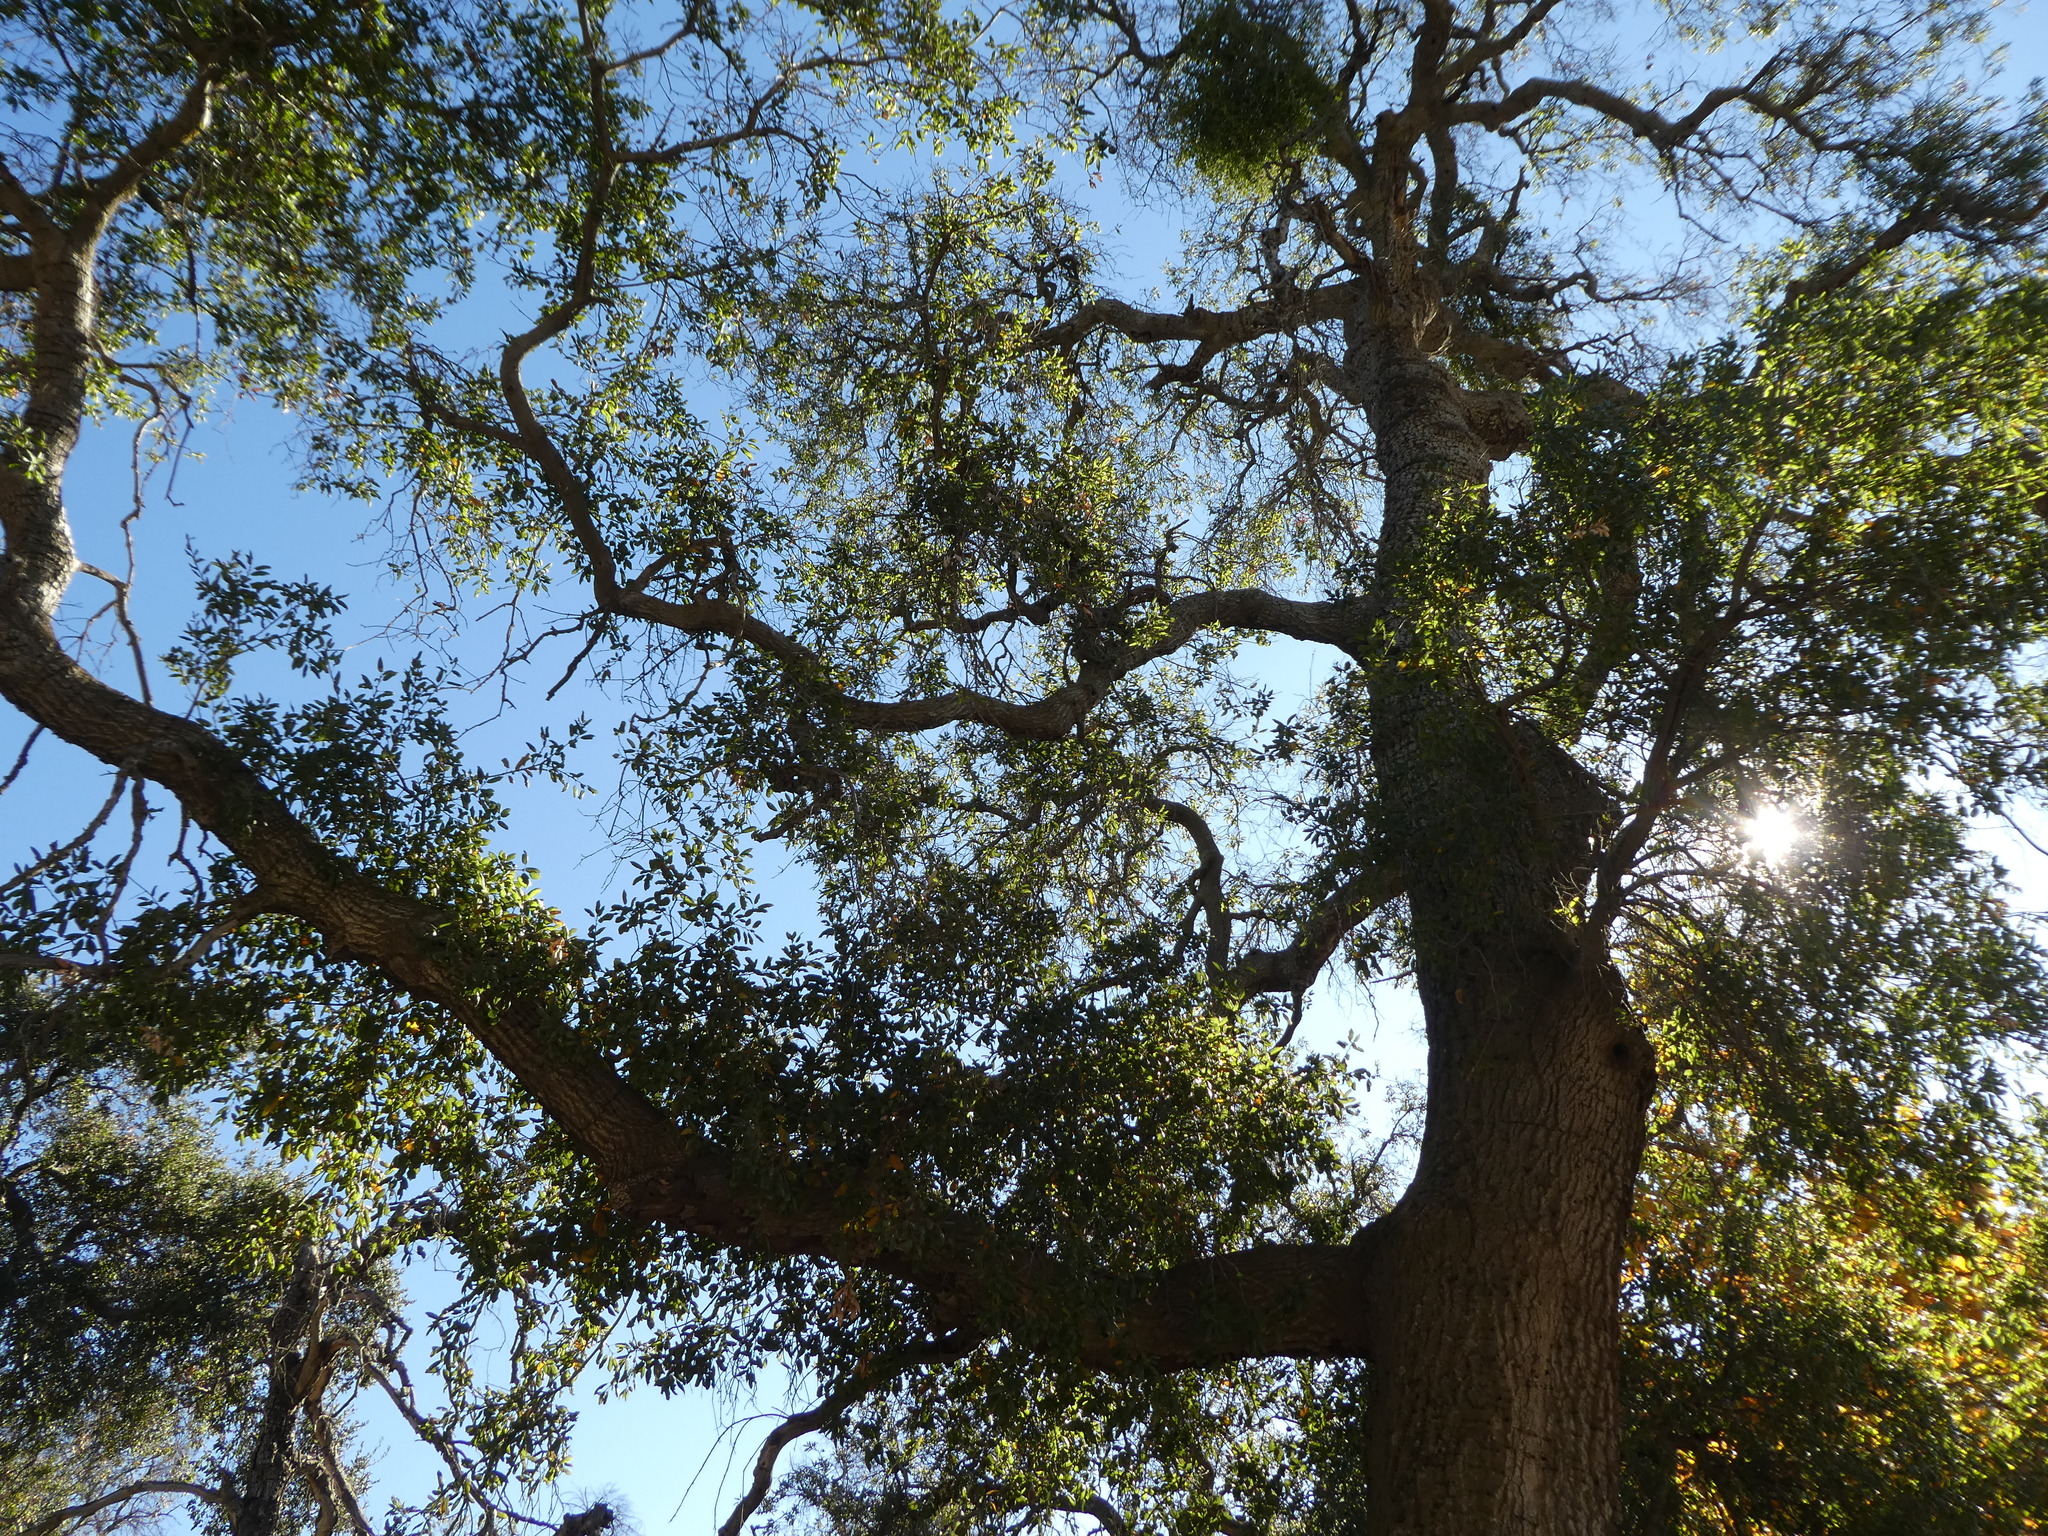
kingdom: Plantae
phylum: Tracheophyta
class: Magnoliopsida
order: Fagales
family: Fagaceae
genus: Quercus
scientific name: Quercus agrifolia
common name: California live oak
